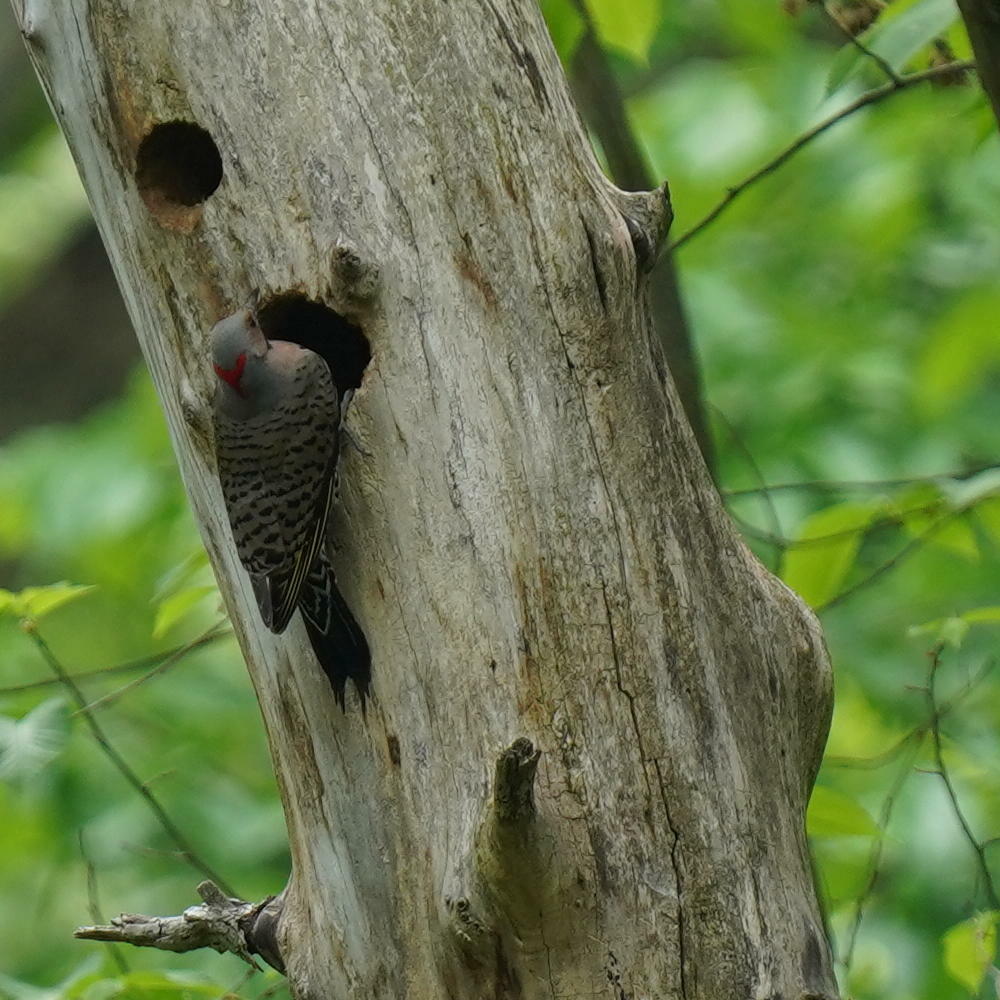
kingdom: Animalia
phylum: Chordata
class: Aves
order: Piciformes
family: Picidae
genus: Colaptes
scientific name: Colaptes auratus
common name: Northern flicker
